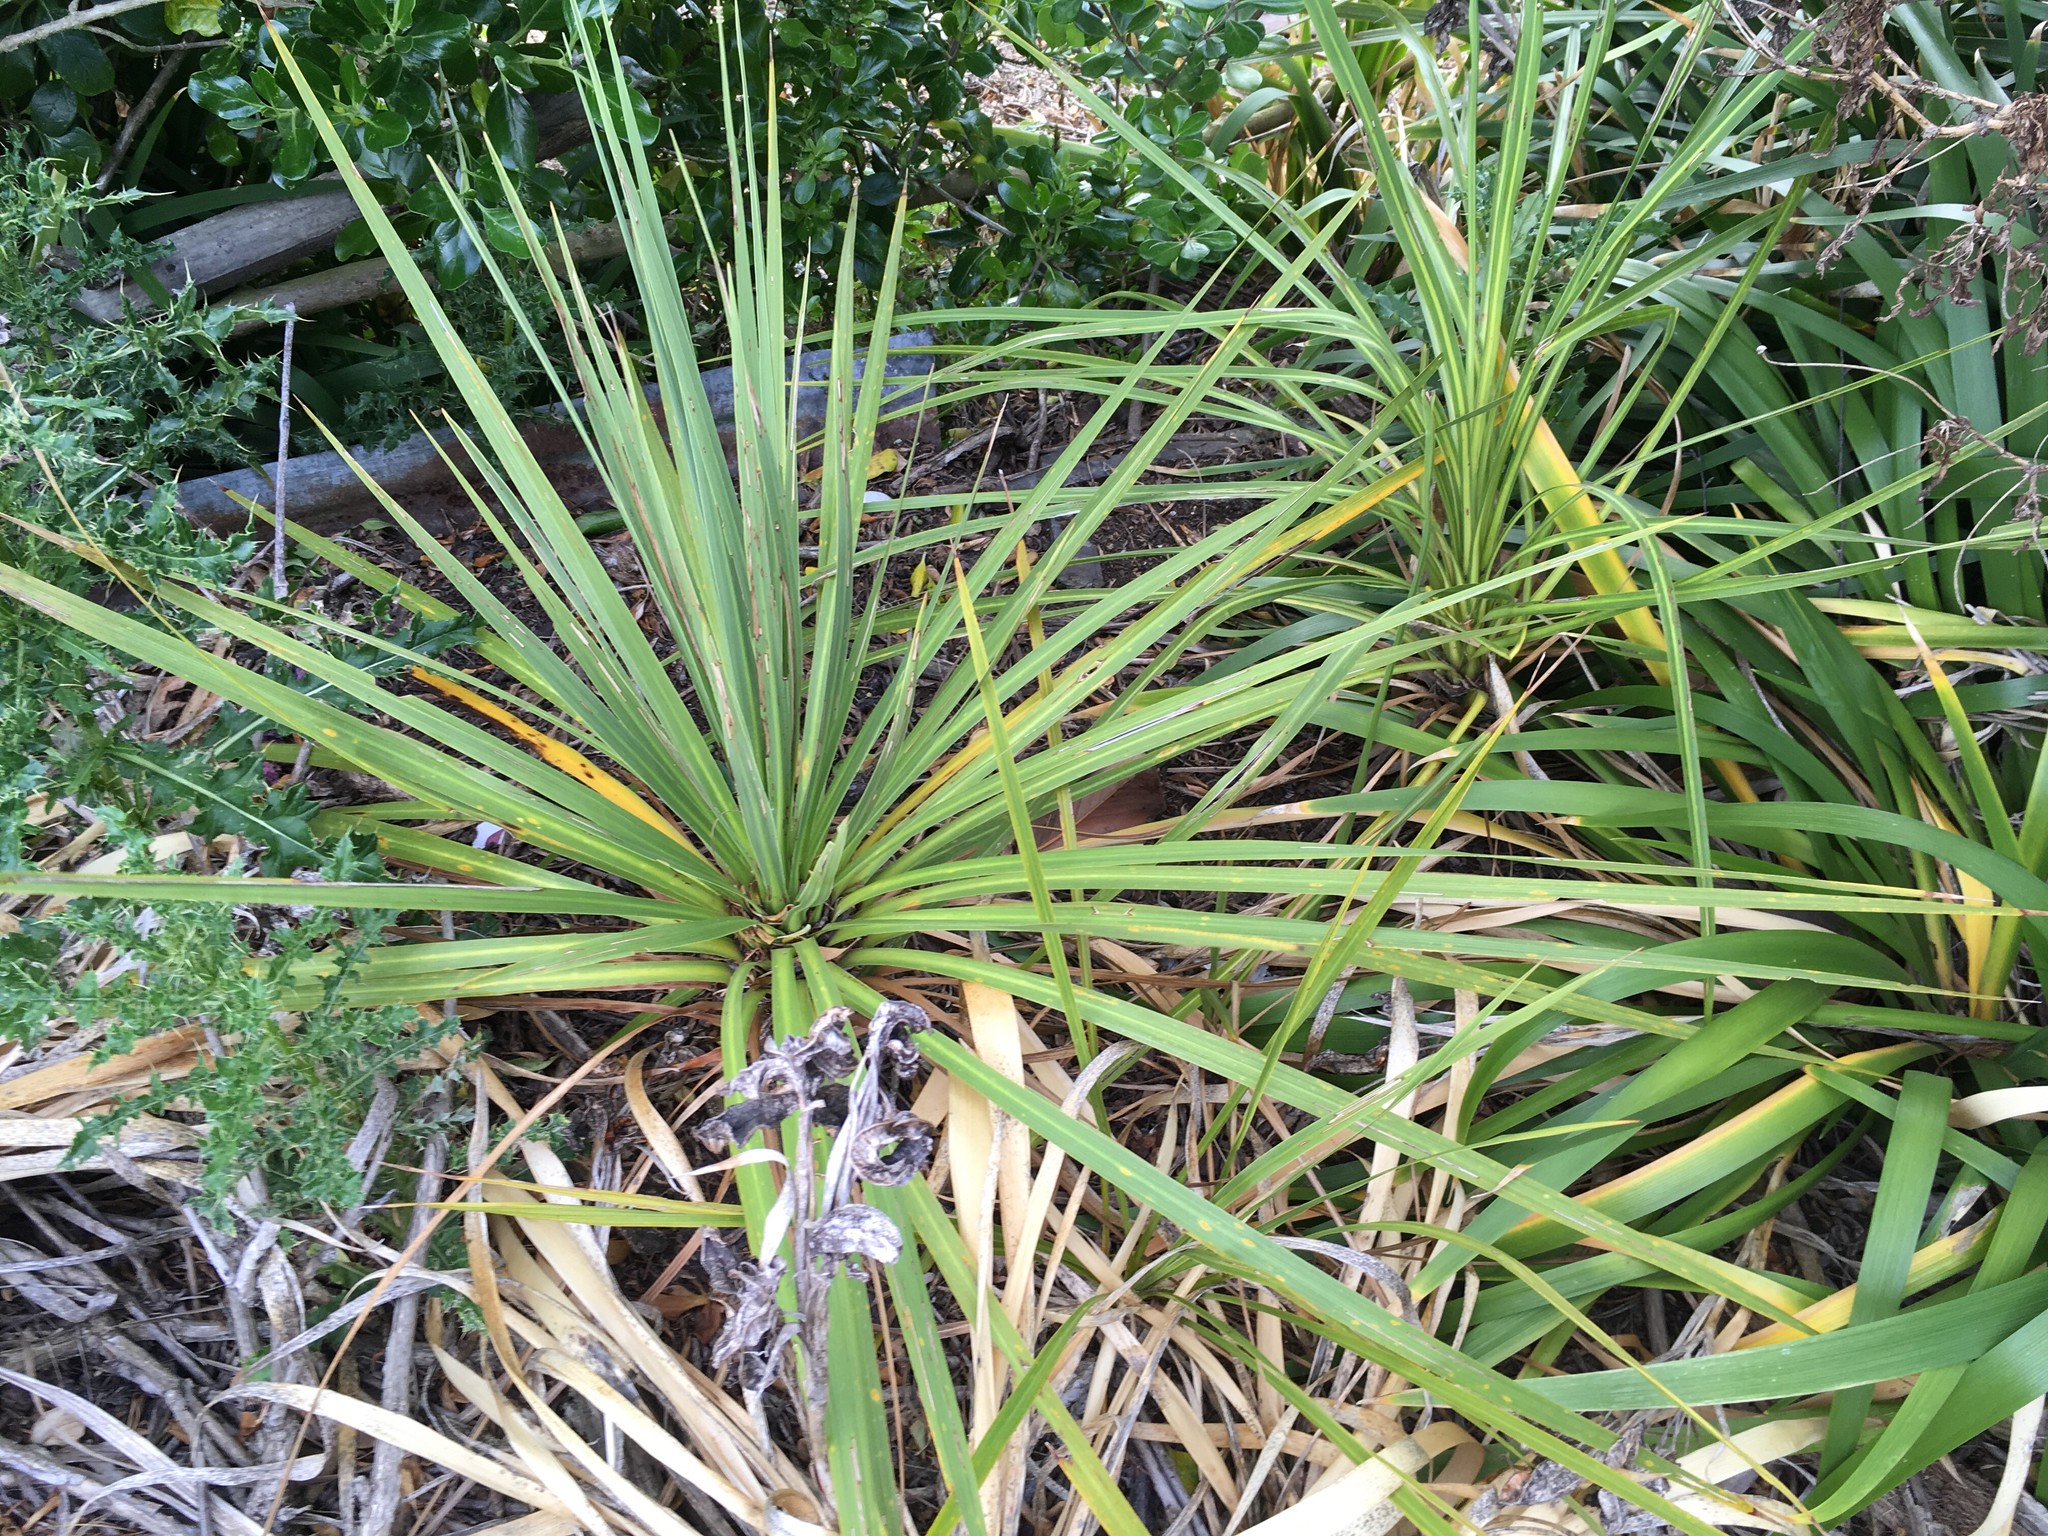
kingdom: Plantae
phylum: Tracheophyta
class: Liliopsida
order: Asparagales
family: Asparagaceae
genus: Cordyline
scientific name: Cordyline australis
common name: Cabbage-palm
